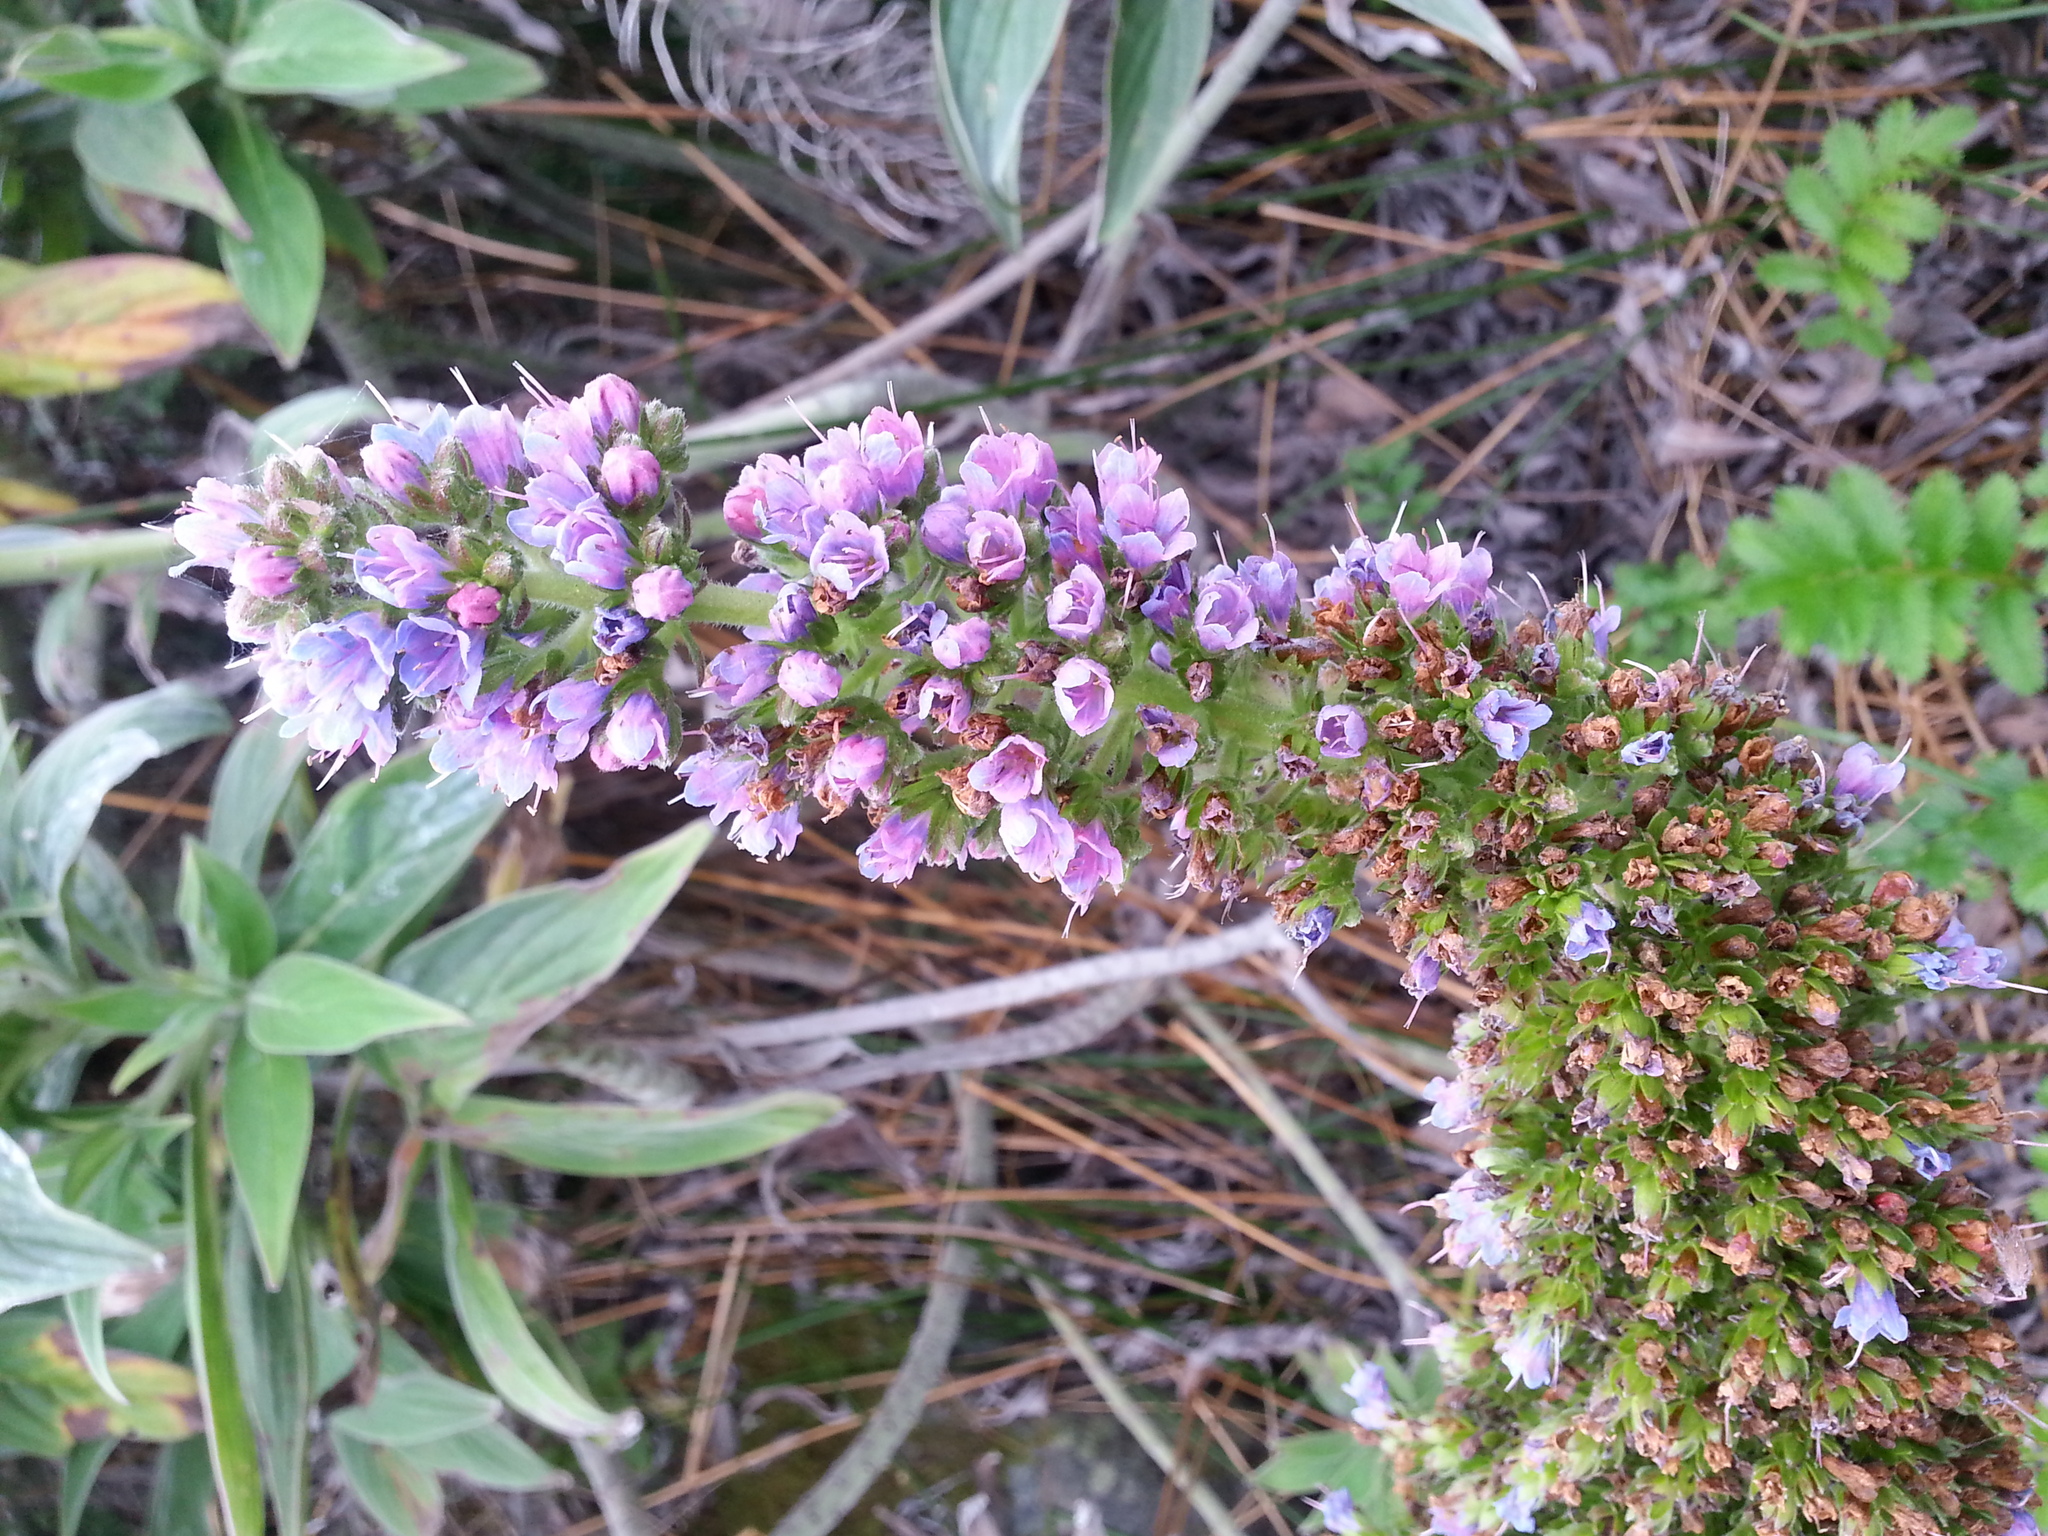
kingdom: Plantae
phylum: Tracheophyta
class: Magnoliopsida
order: Boraginales
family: Boraginaceae
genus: Echium
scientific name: Echium candicans
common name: Pride of madeira
